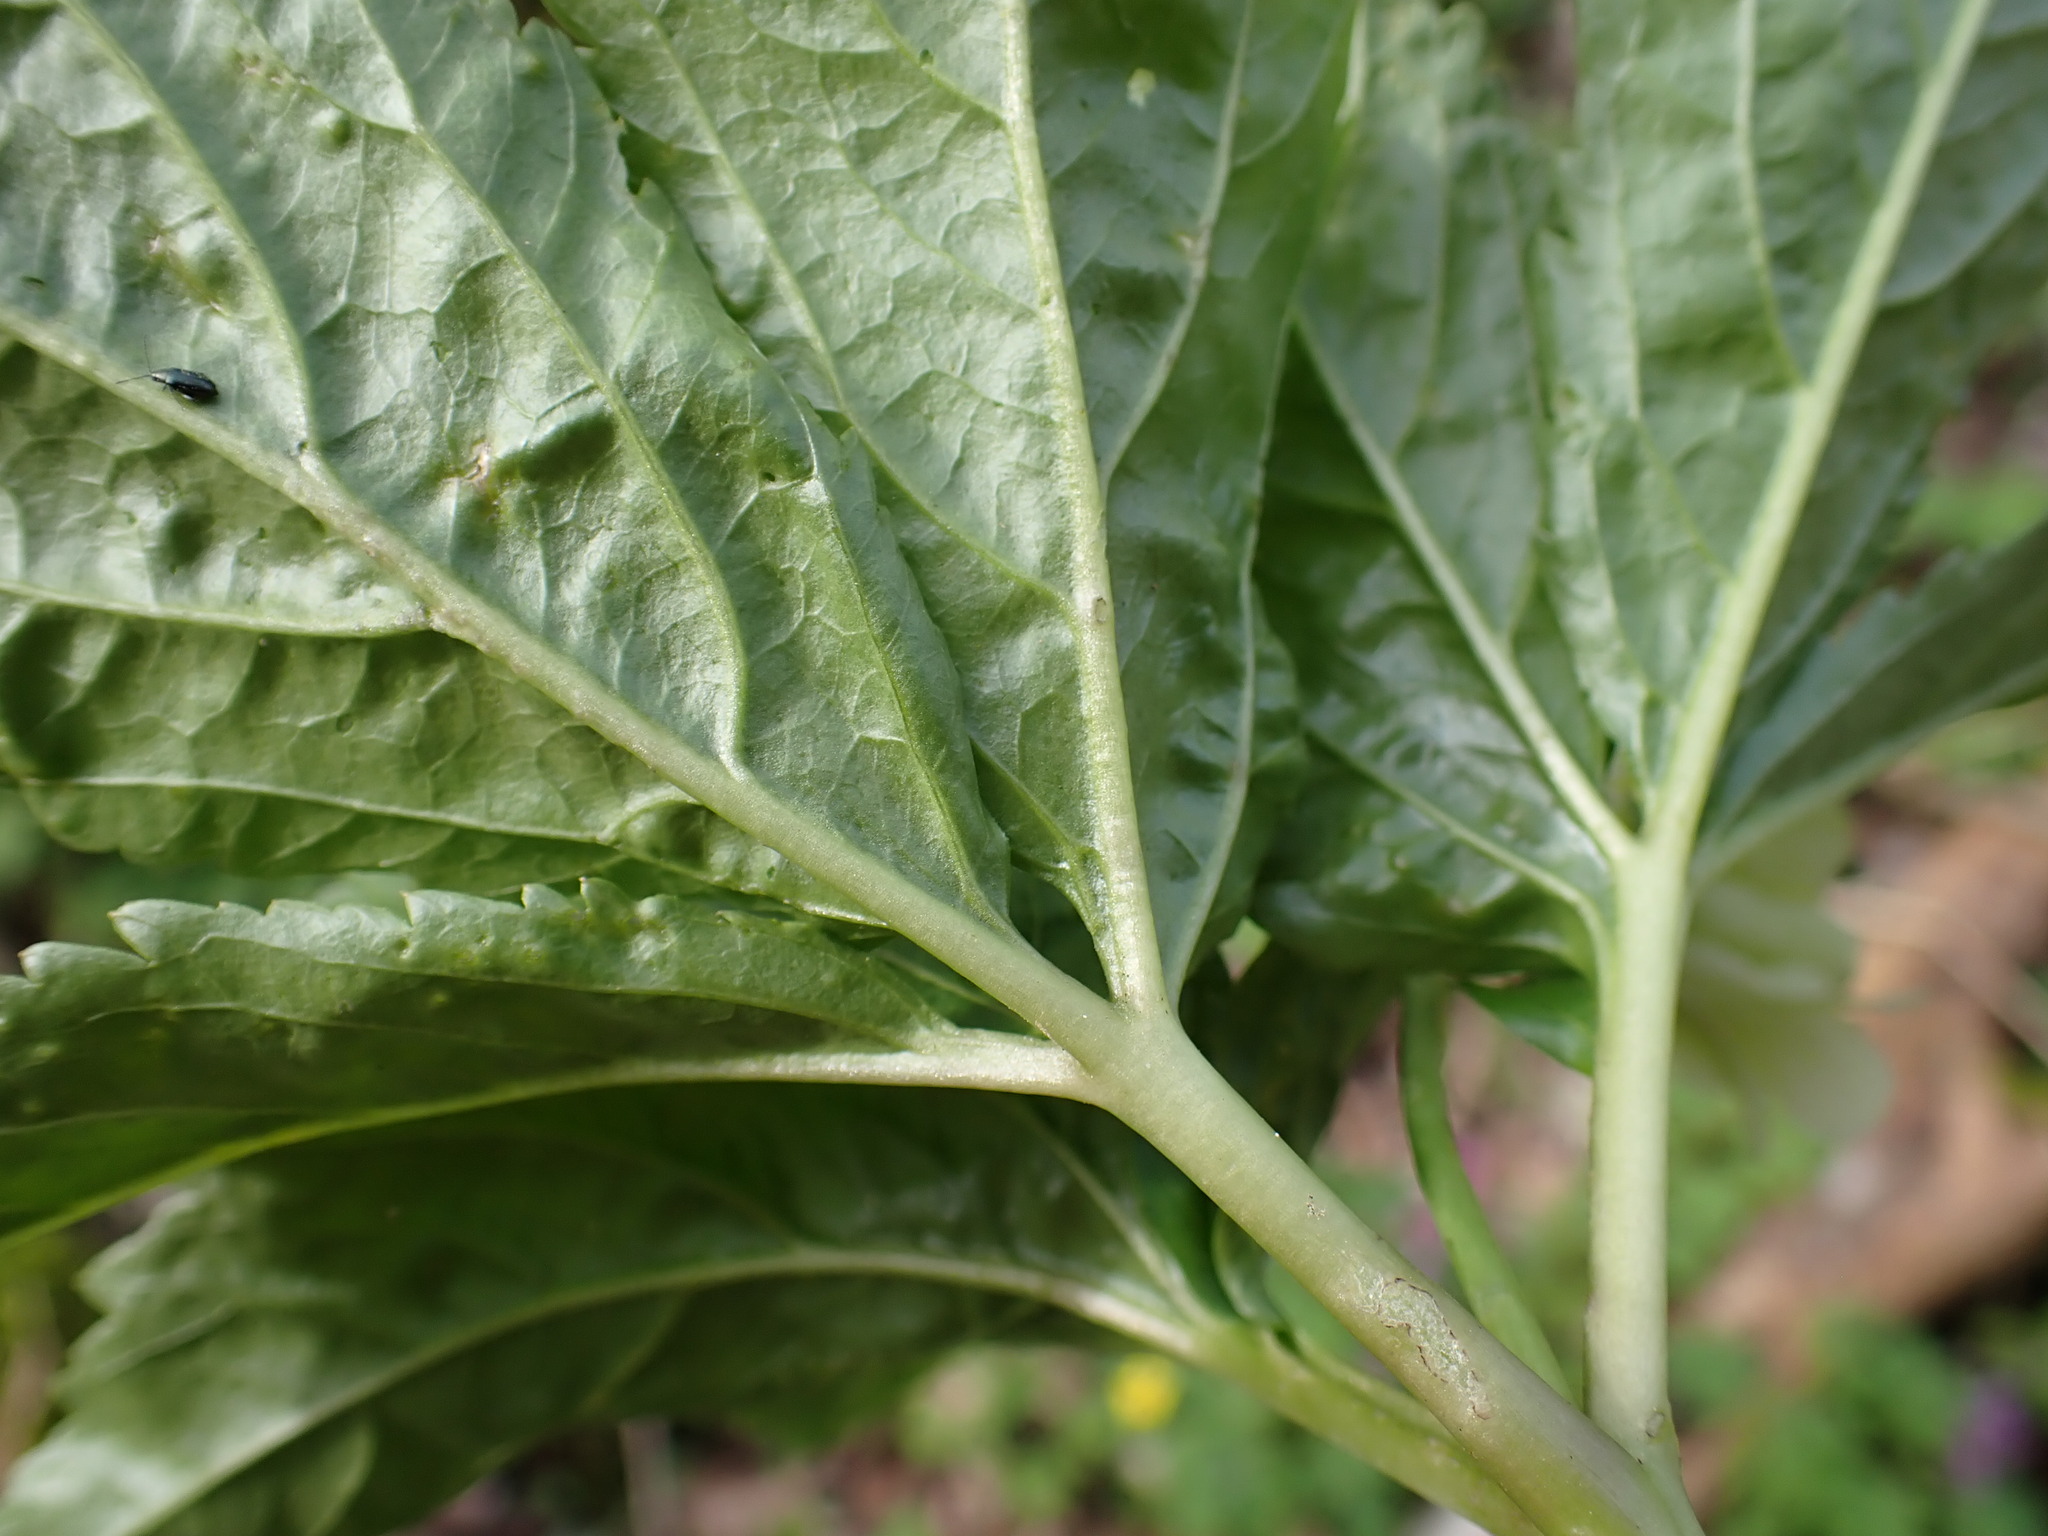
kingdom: Plantae
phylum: Tracheophyta
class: Magnoliopsida
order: Brassicales
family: Brassicaceae
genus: Cardamine
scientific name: Cardamine enneaphyllos
